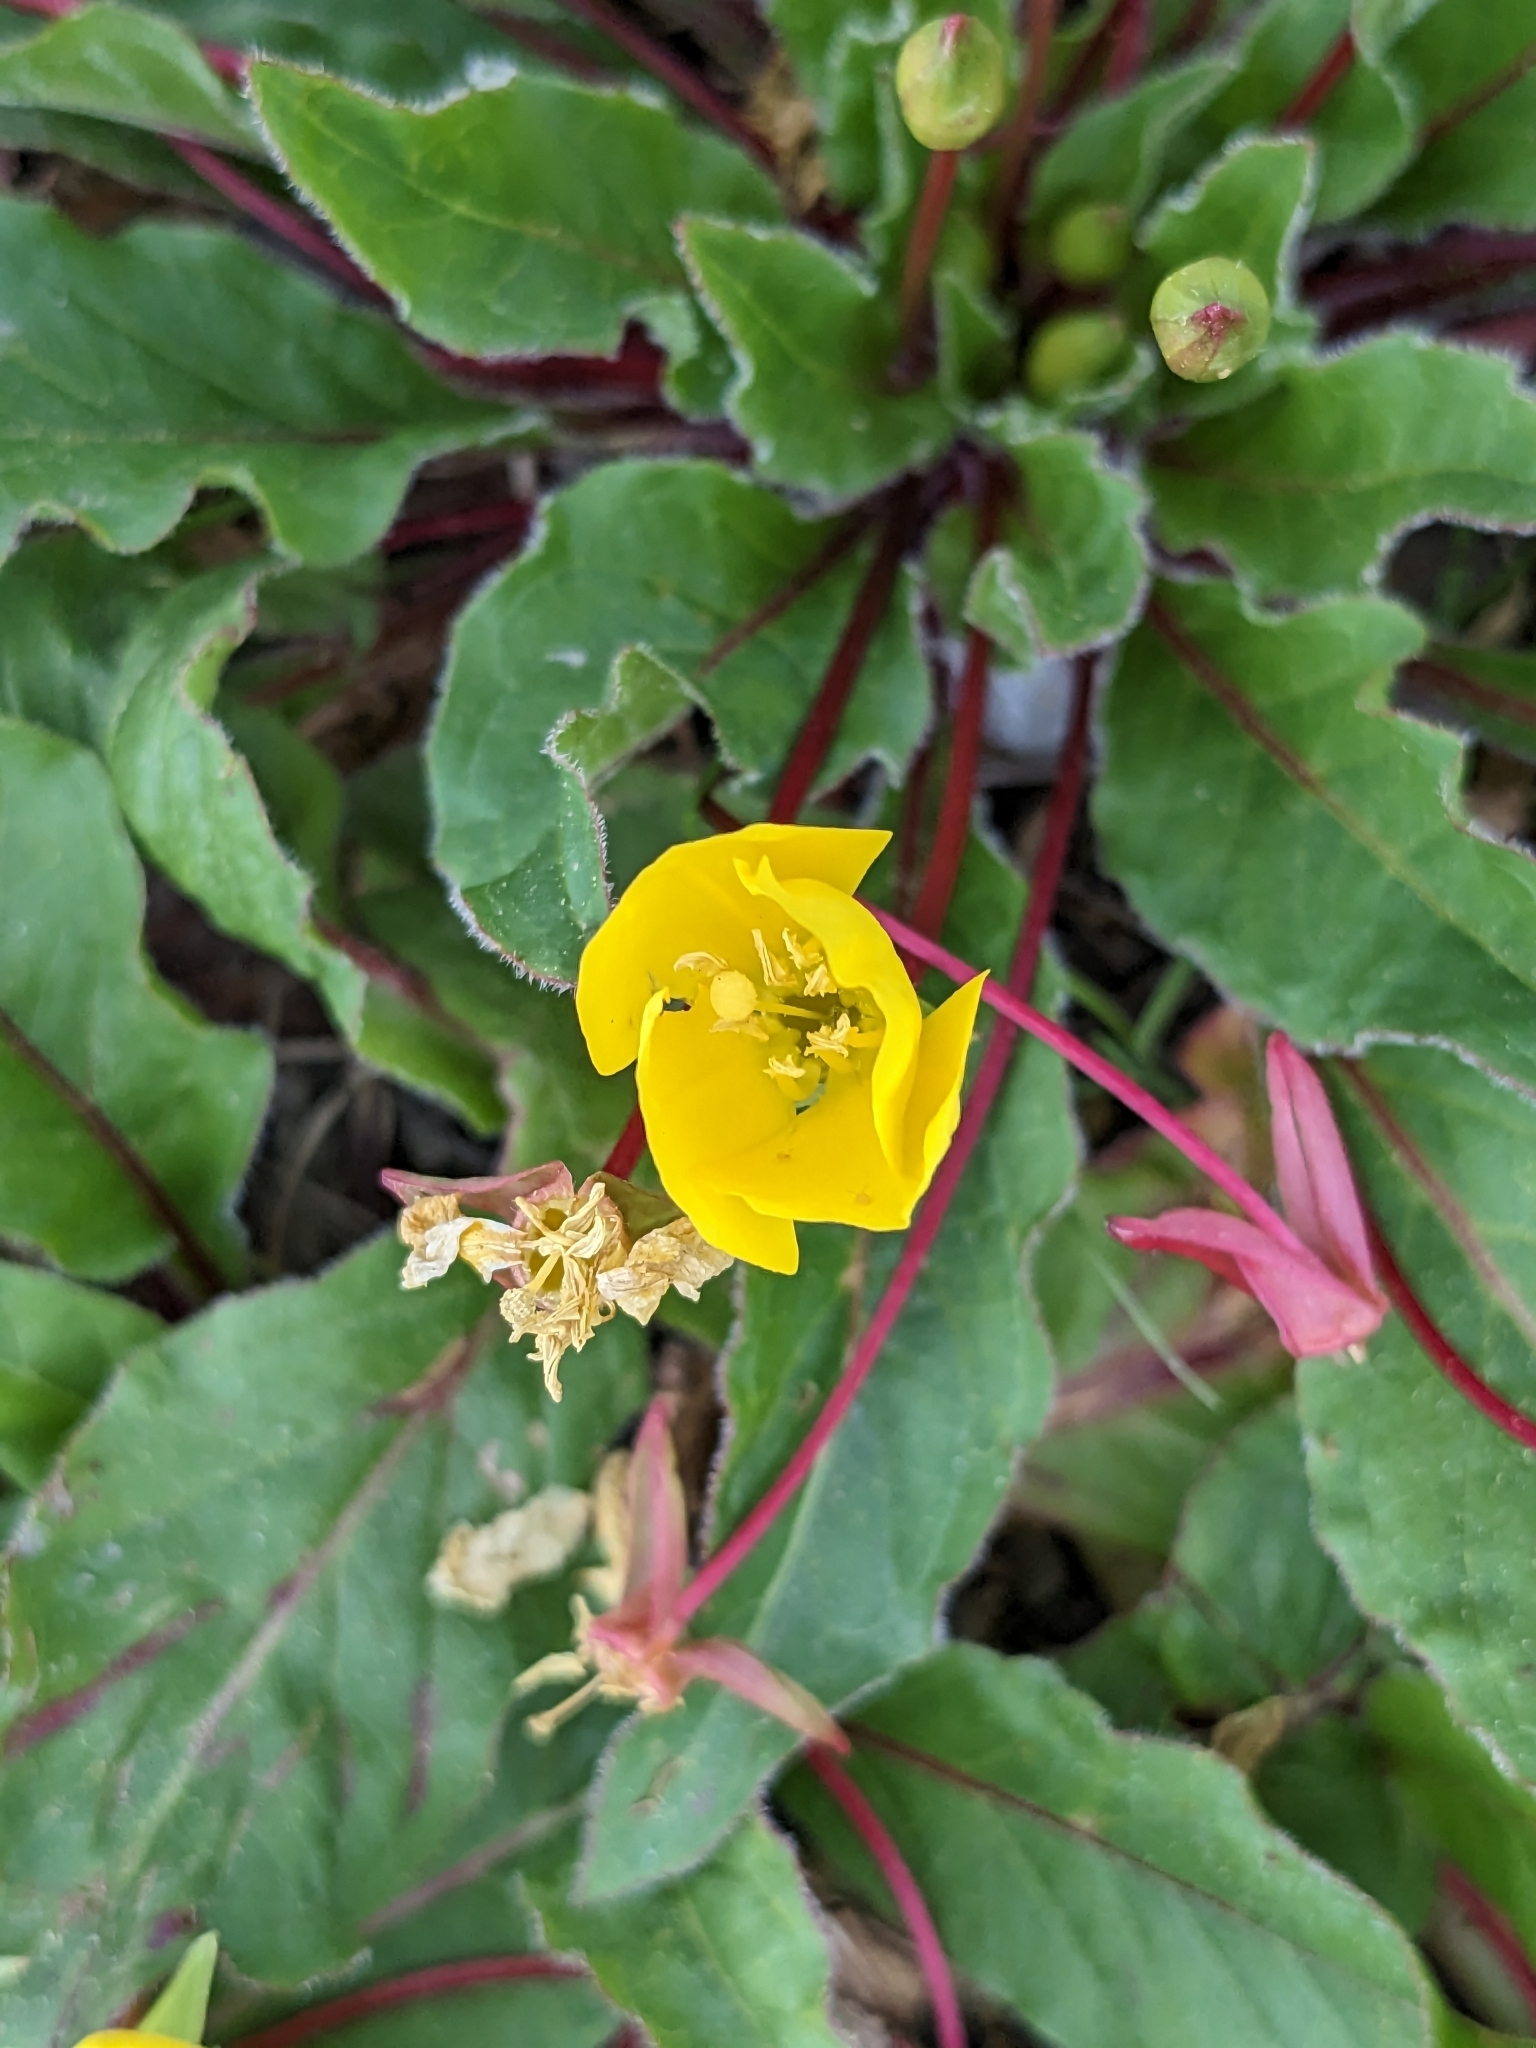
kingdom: Plantae
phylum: Tracheophyta
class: Magnoliopsida
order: Myrtales
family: Onagraceae
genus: Taraxia
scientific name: Taraxia ovata
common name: Goldeneggs
